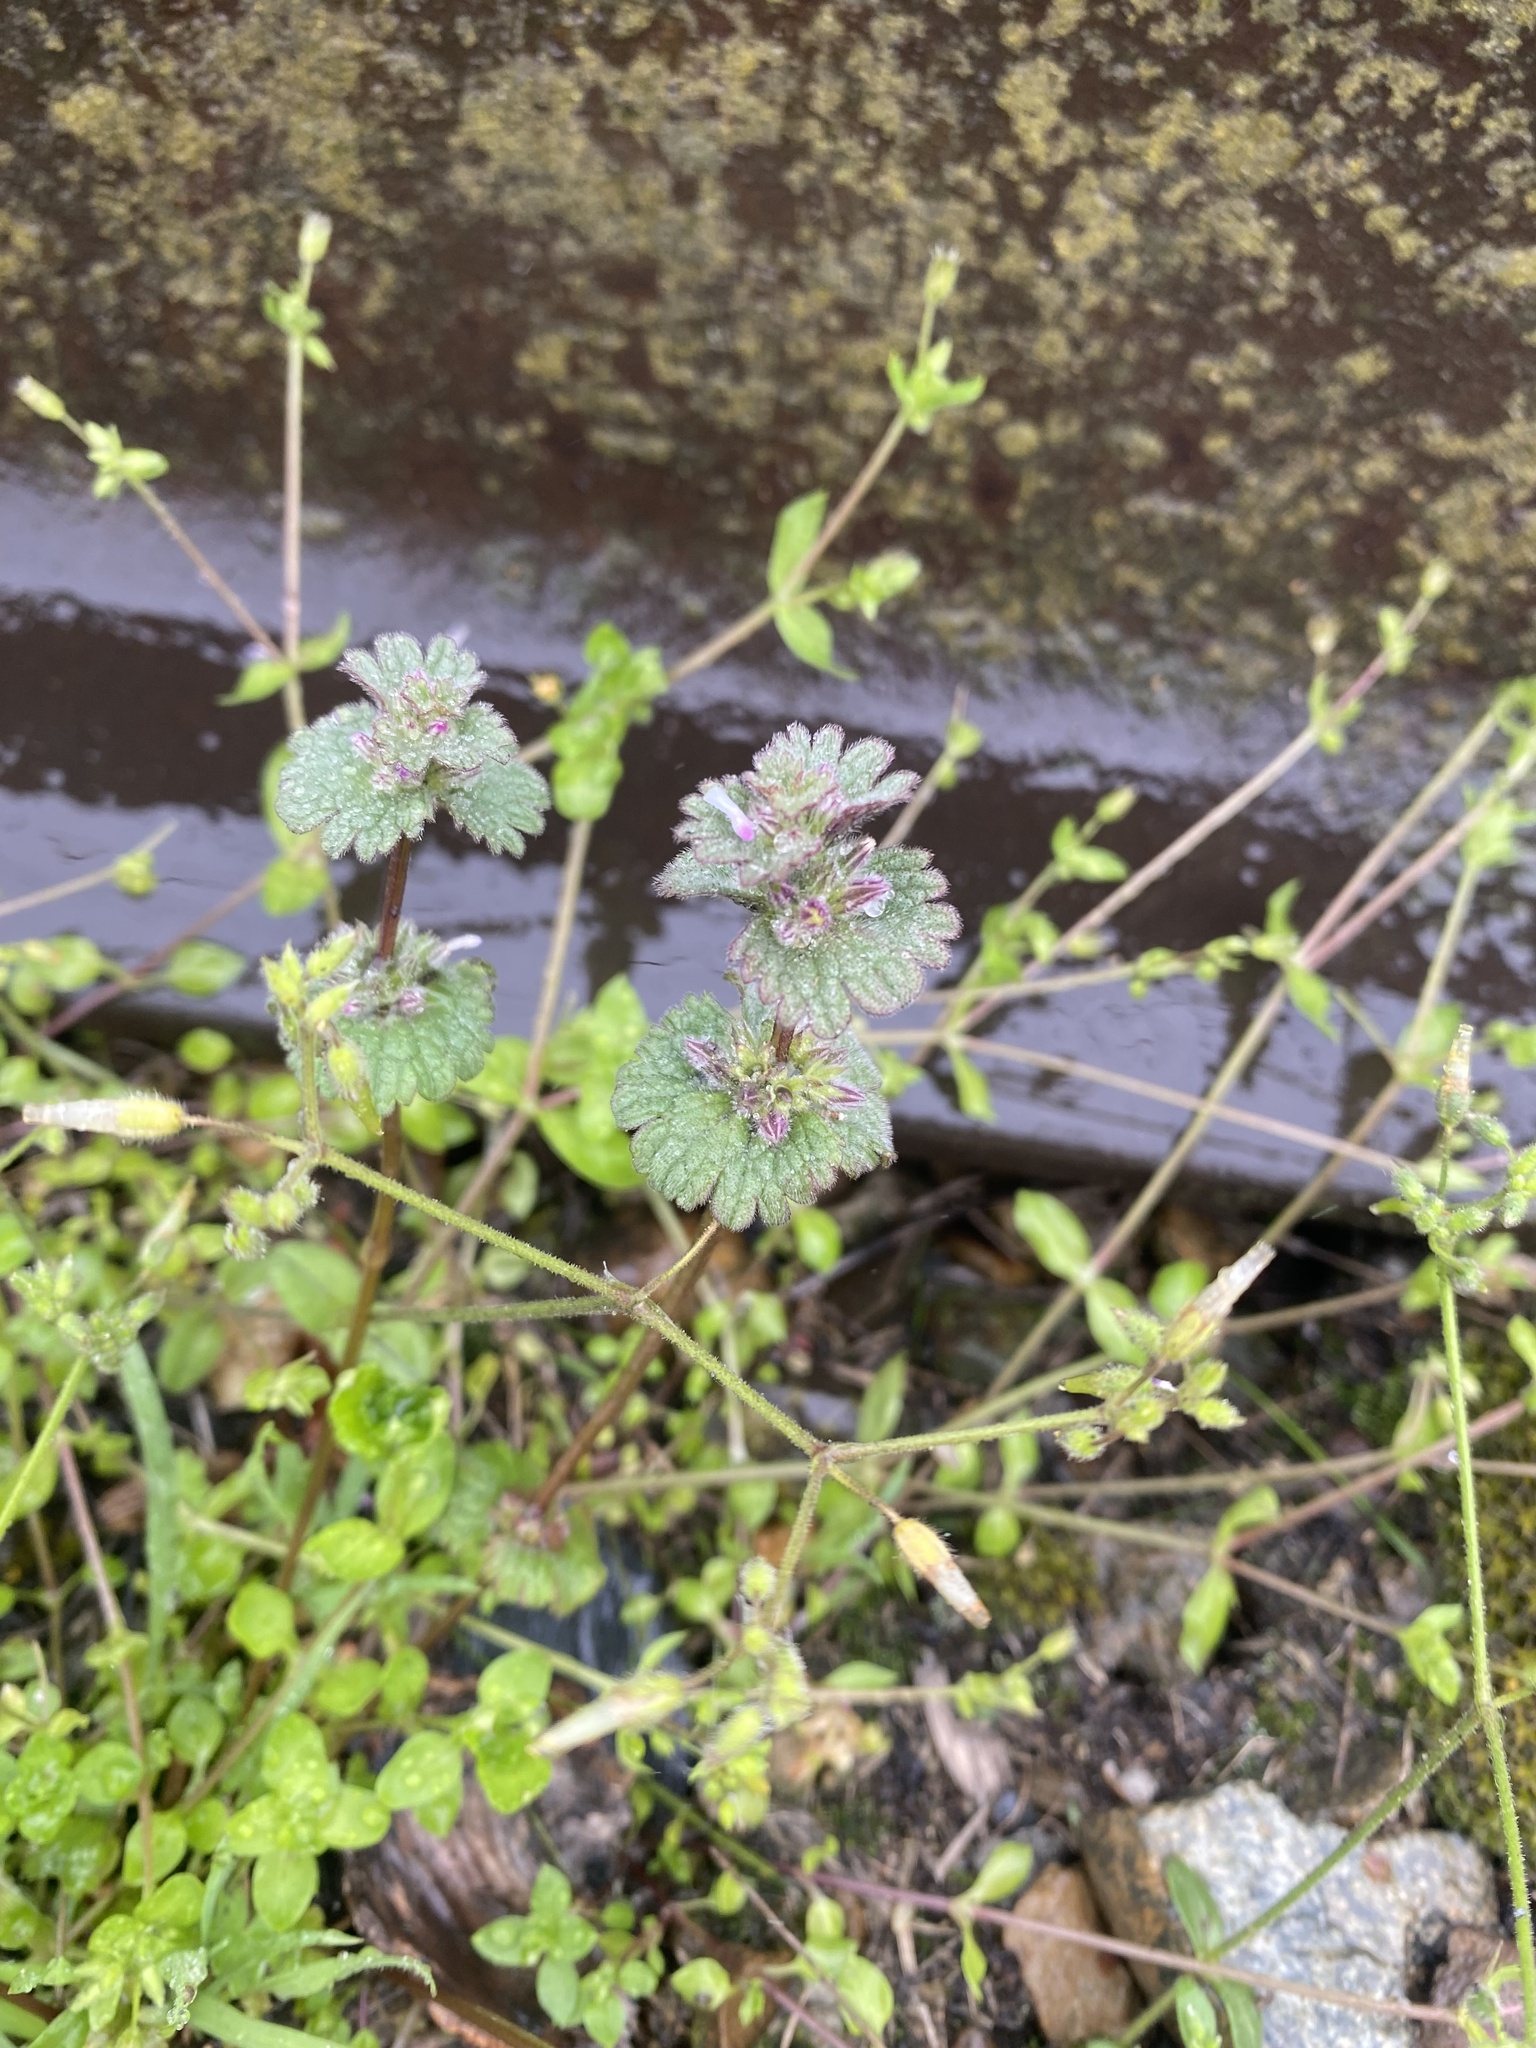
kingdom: Plantae
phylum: Tracheophyta
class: Magnoliopsida
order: Lamiales
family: Lamiaceae
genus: Lamium
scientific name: Lamium amplexicaule
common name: Henbit dead-nettle
